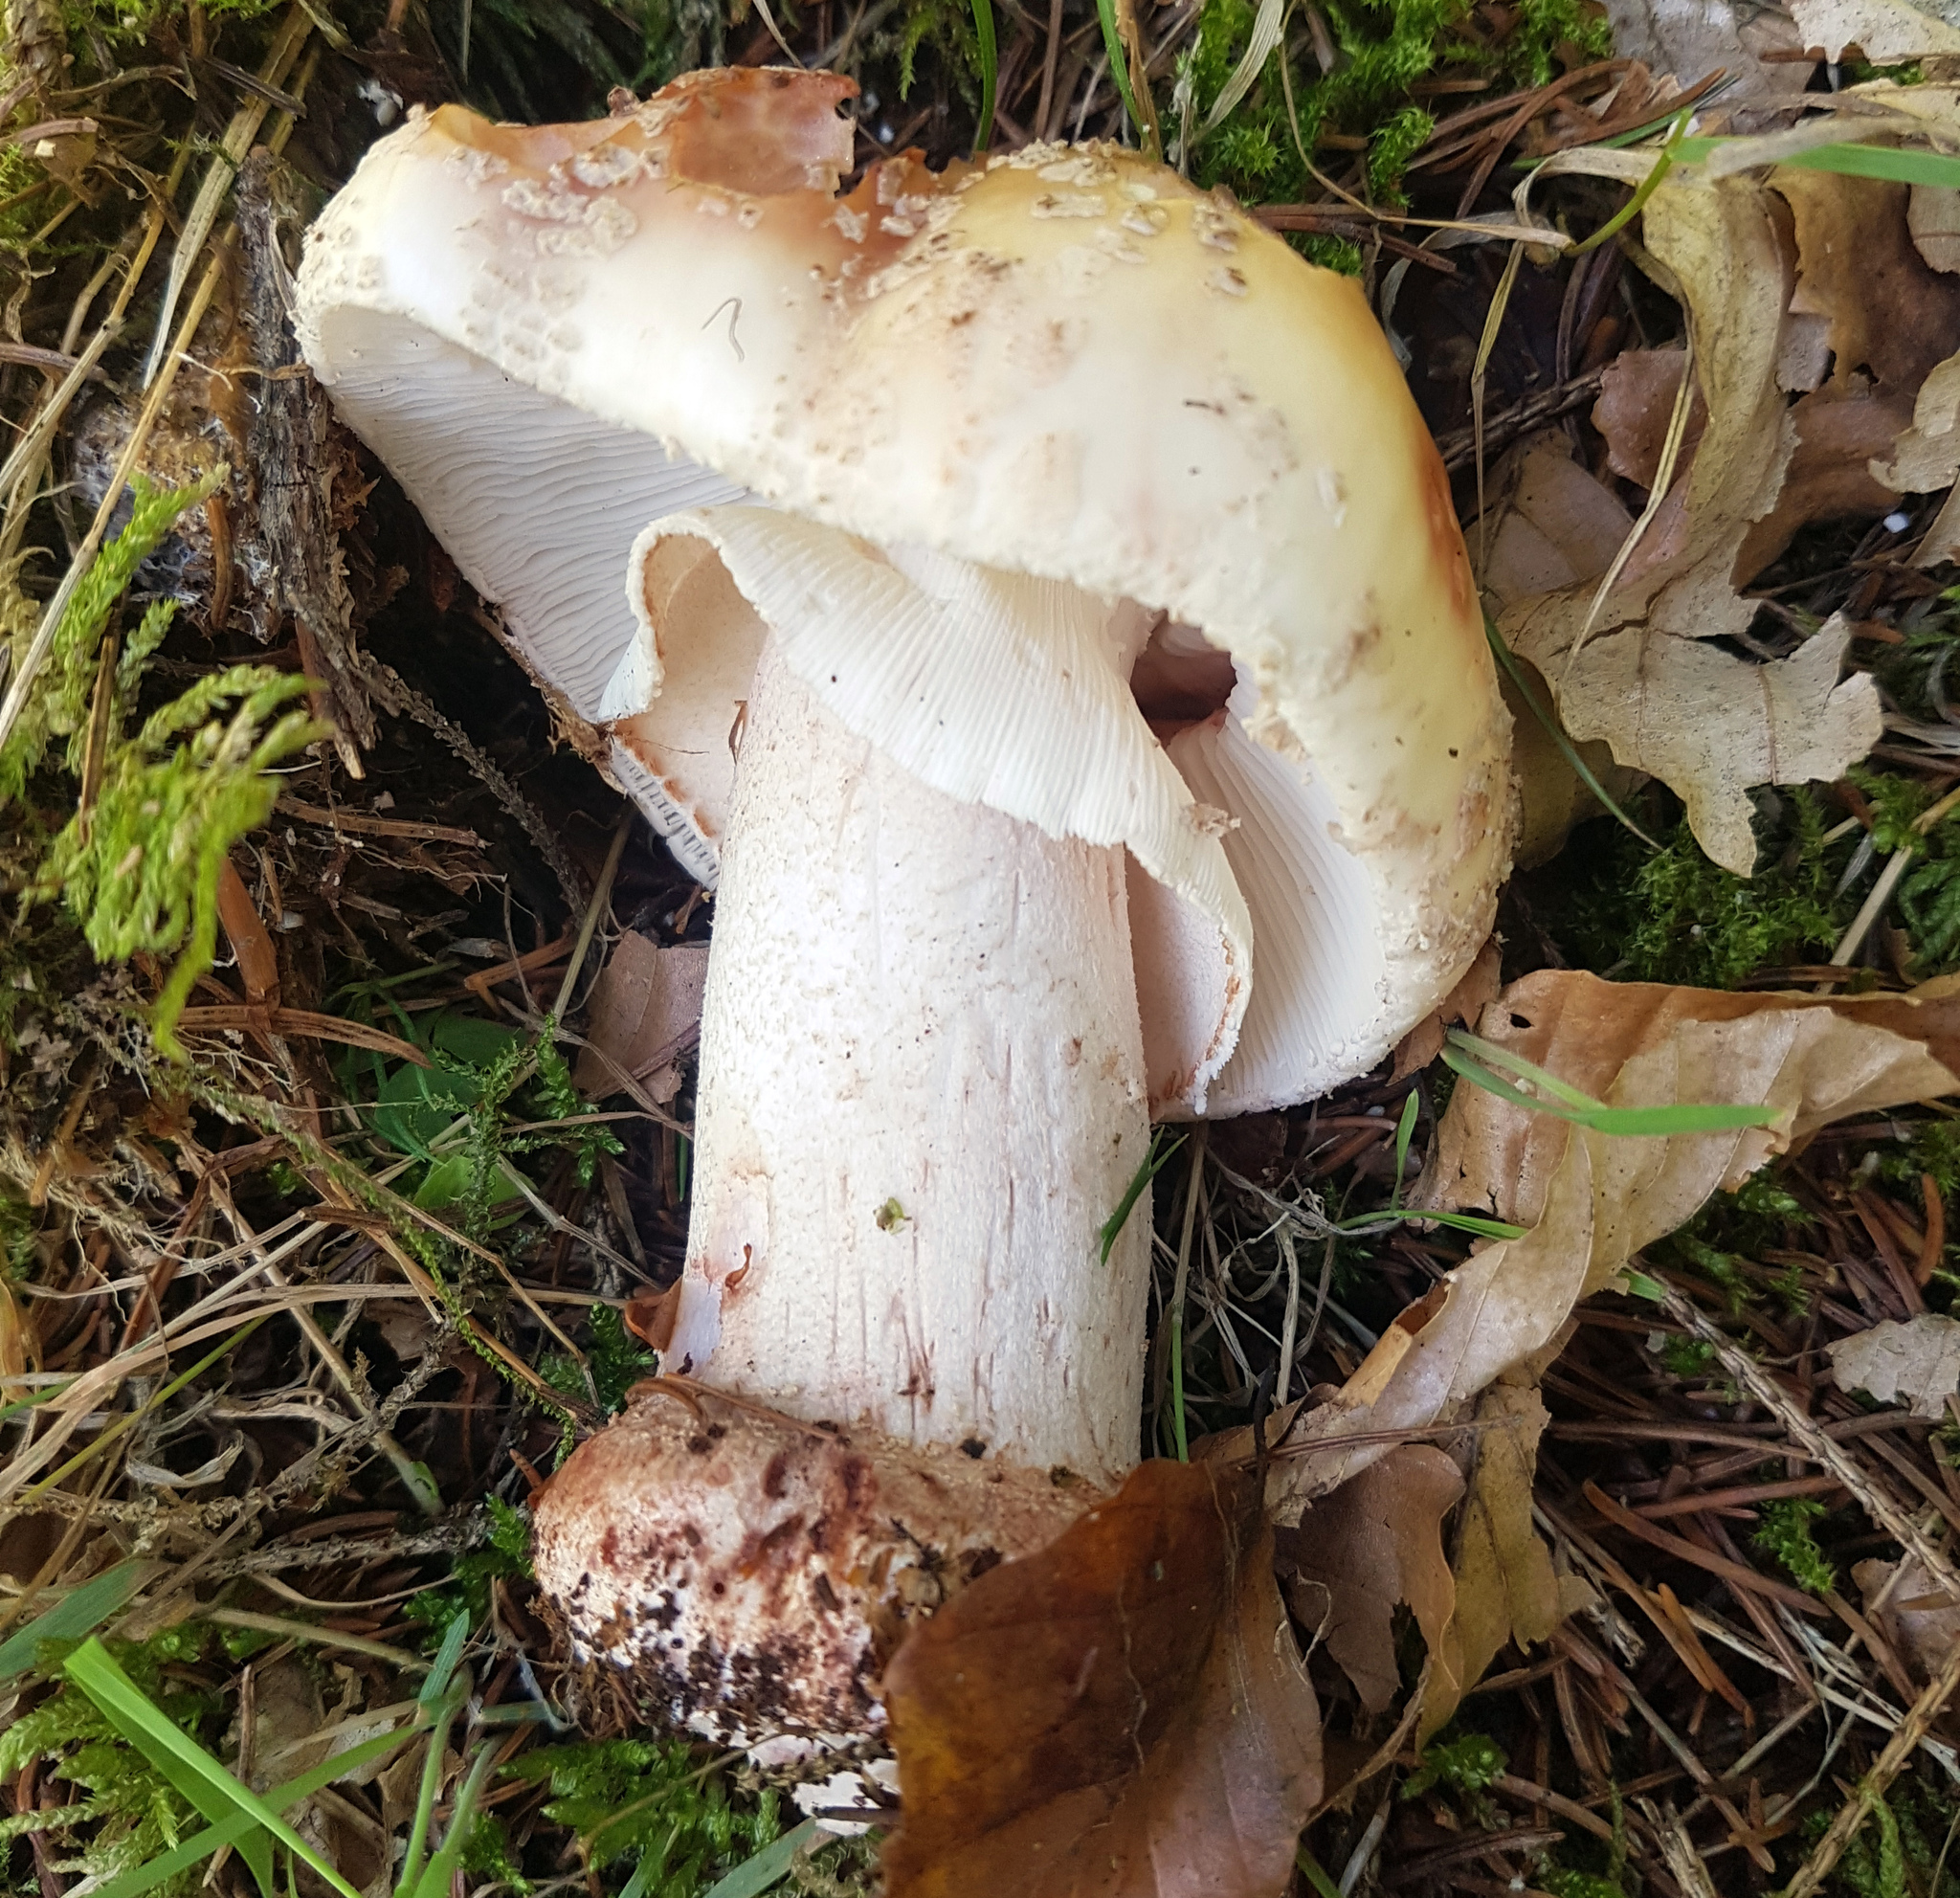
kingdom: Fungi
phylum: Basidiomycota
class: Agaricomycetes
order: Agaricales
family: Amanitaceae
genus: Amanita
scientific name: Amanita rubescens
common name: Blusher
